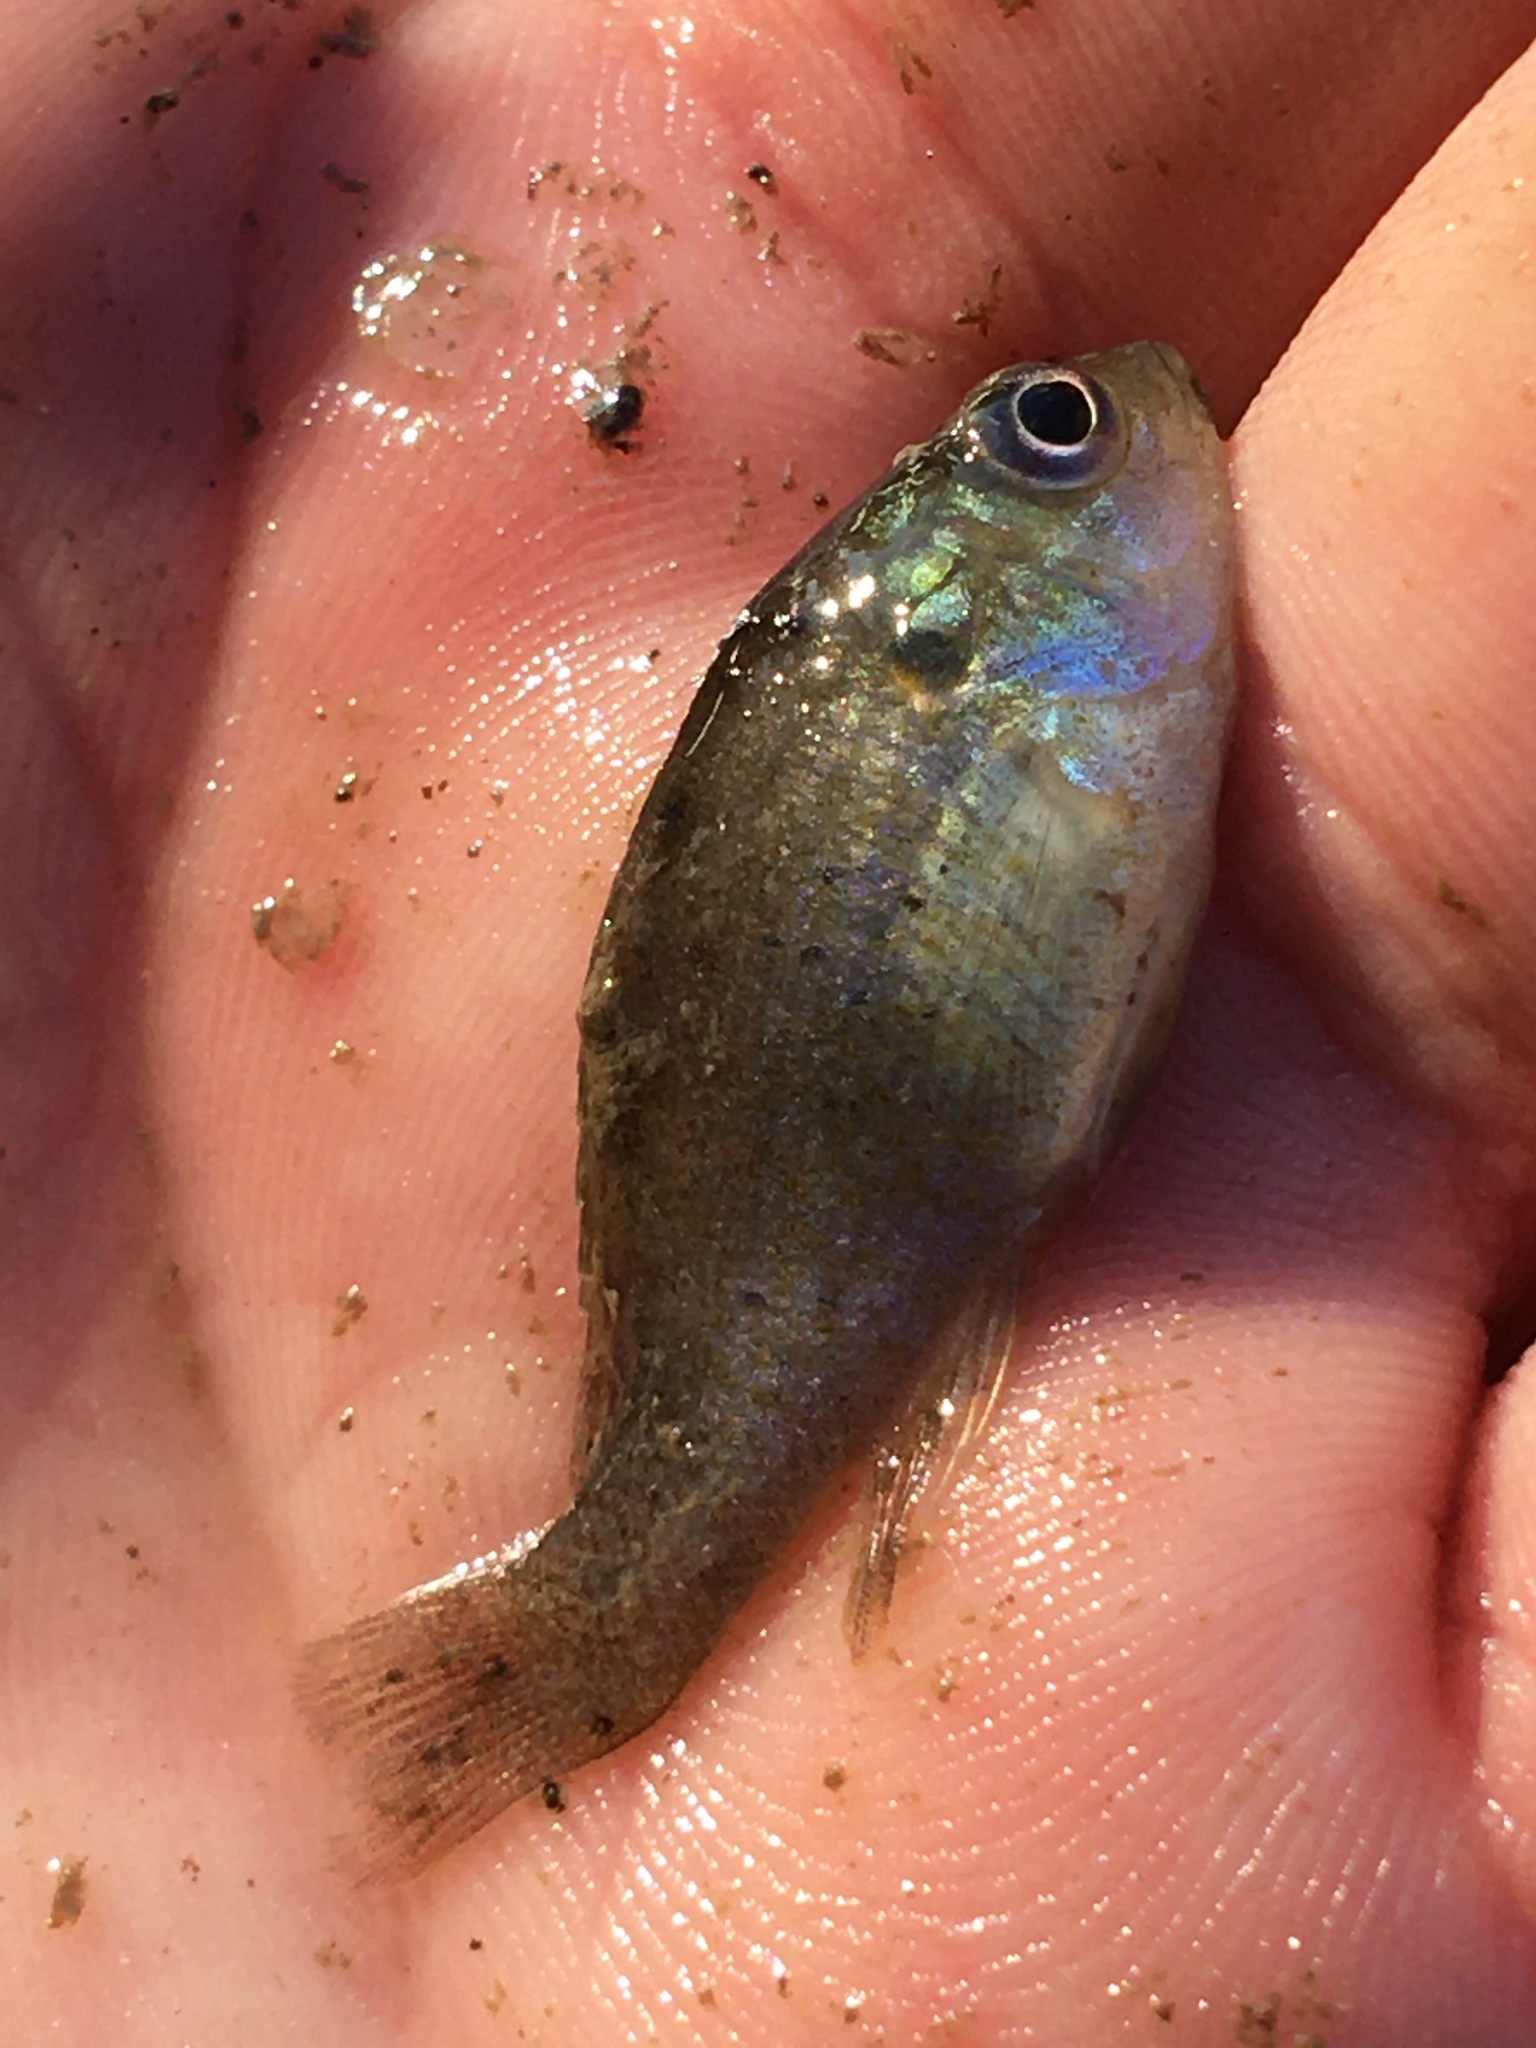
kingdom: Animalia
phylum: Chordata
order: Perciformes
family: Centrarchidae
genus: Lepomis
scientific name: Lepomis cyanellus
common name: Green sunfish
